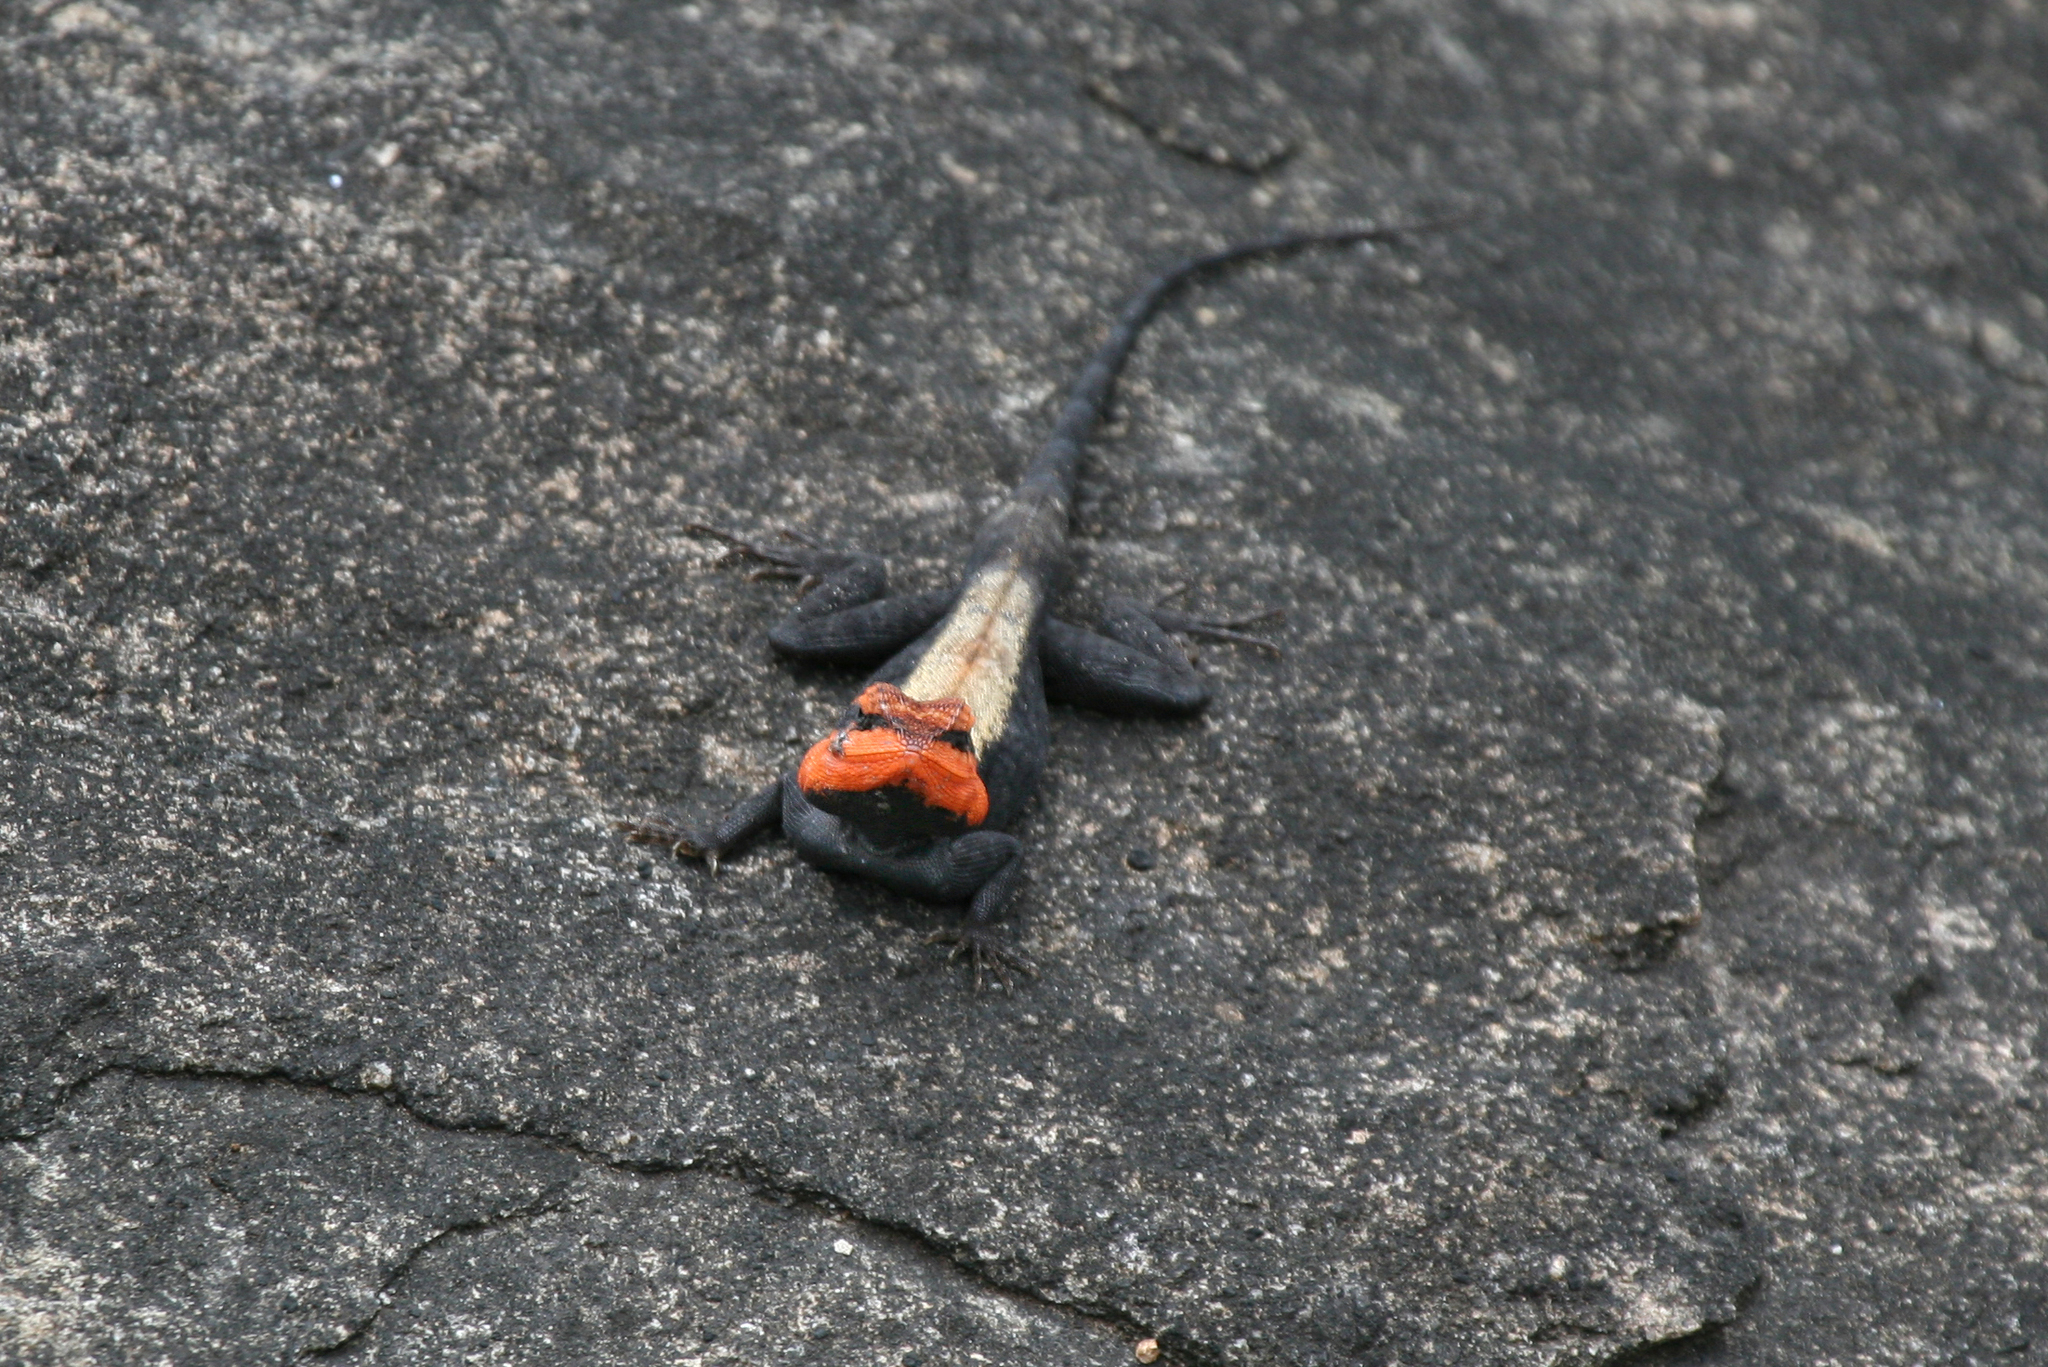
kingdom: Animalia
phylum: Chordata
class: Squamata
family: Agamidae
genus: Psammophilus
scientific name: Psammophilus dorsalis
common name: South indian rock agama
